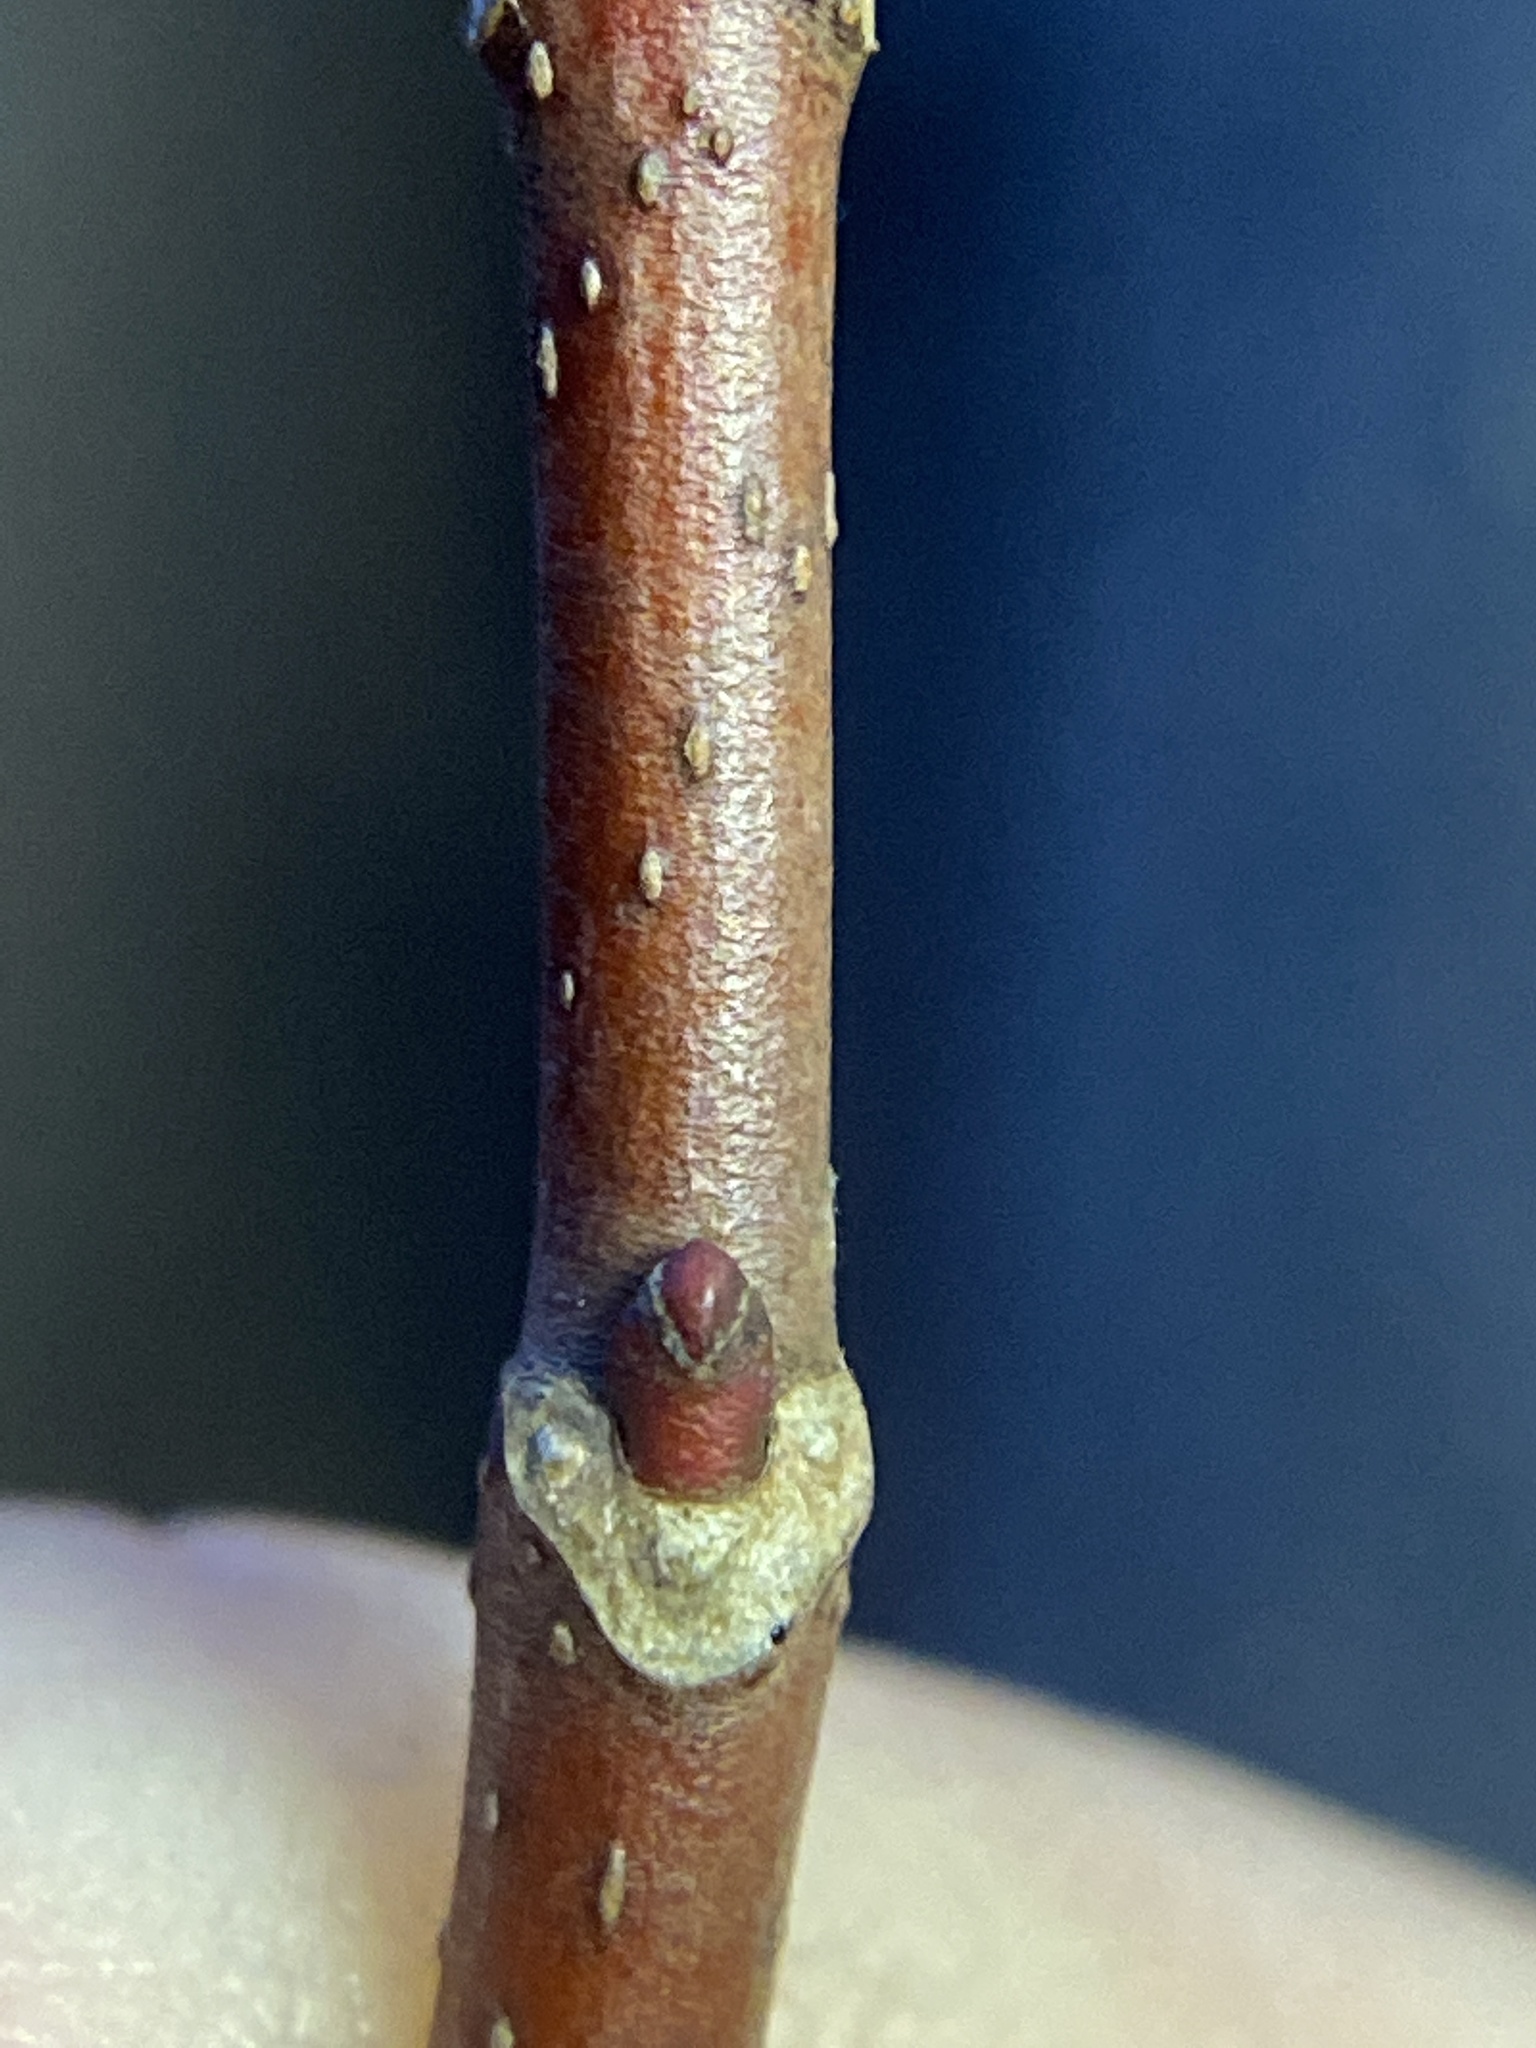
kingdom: Plantae
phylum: Tracheophyta
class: Magnoliopsida
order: Sapindales
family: Sapindaceae
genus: Acer
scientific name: Acer rubrum
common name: Red maple
